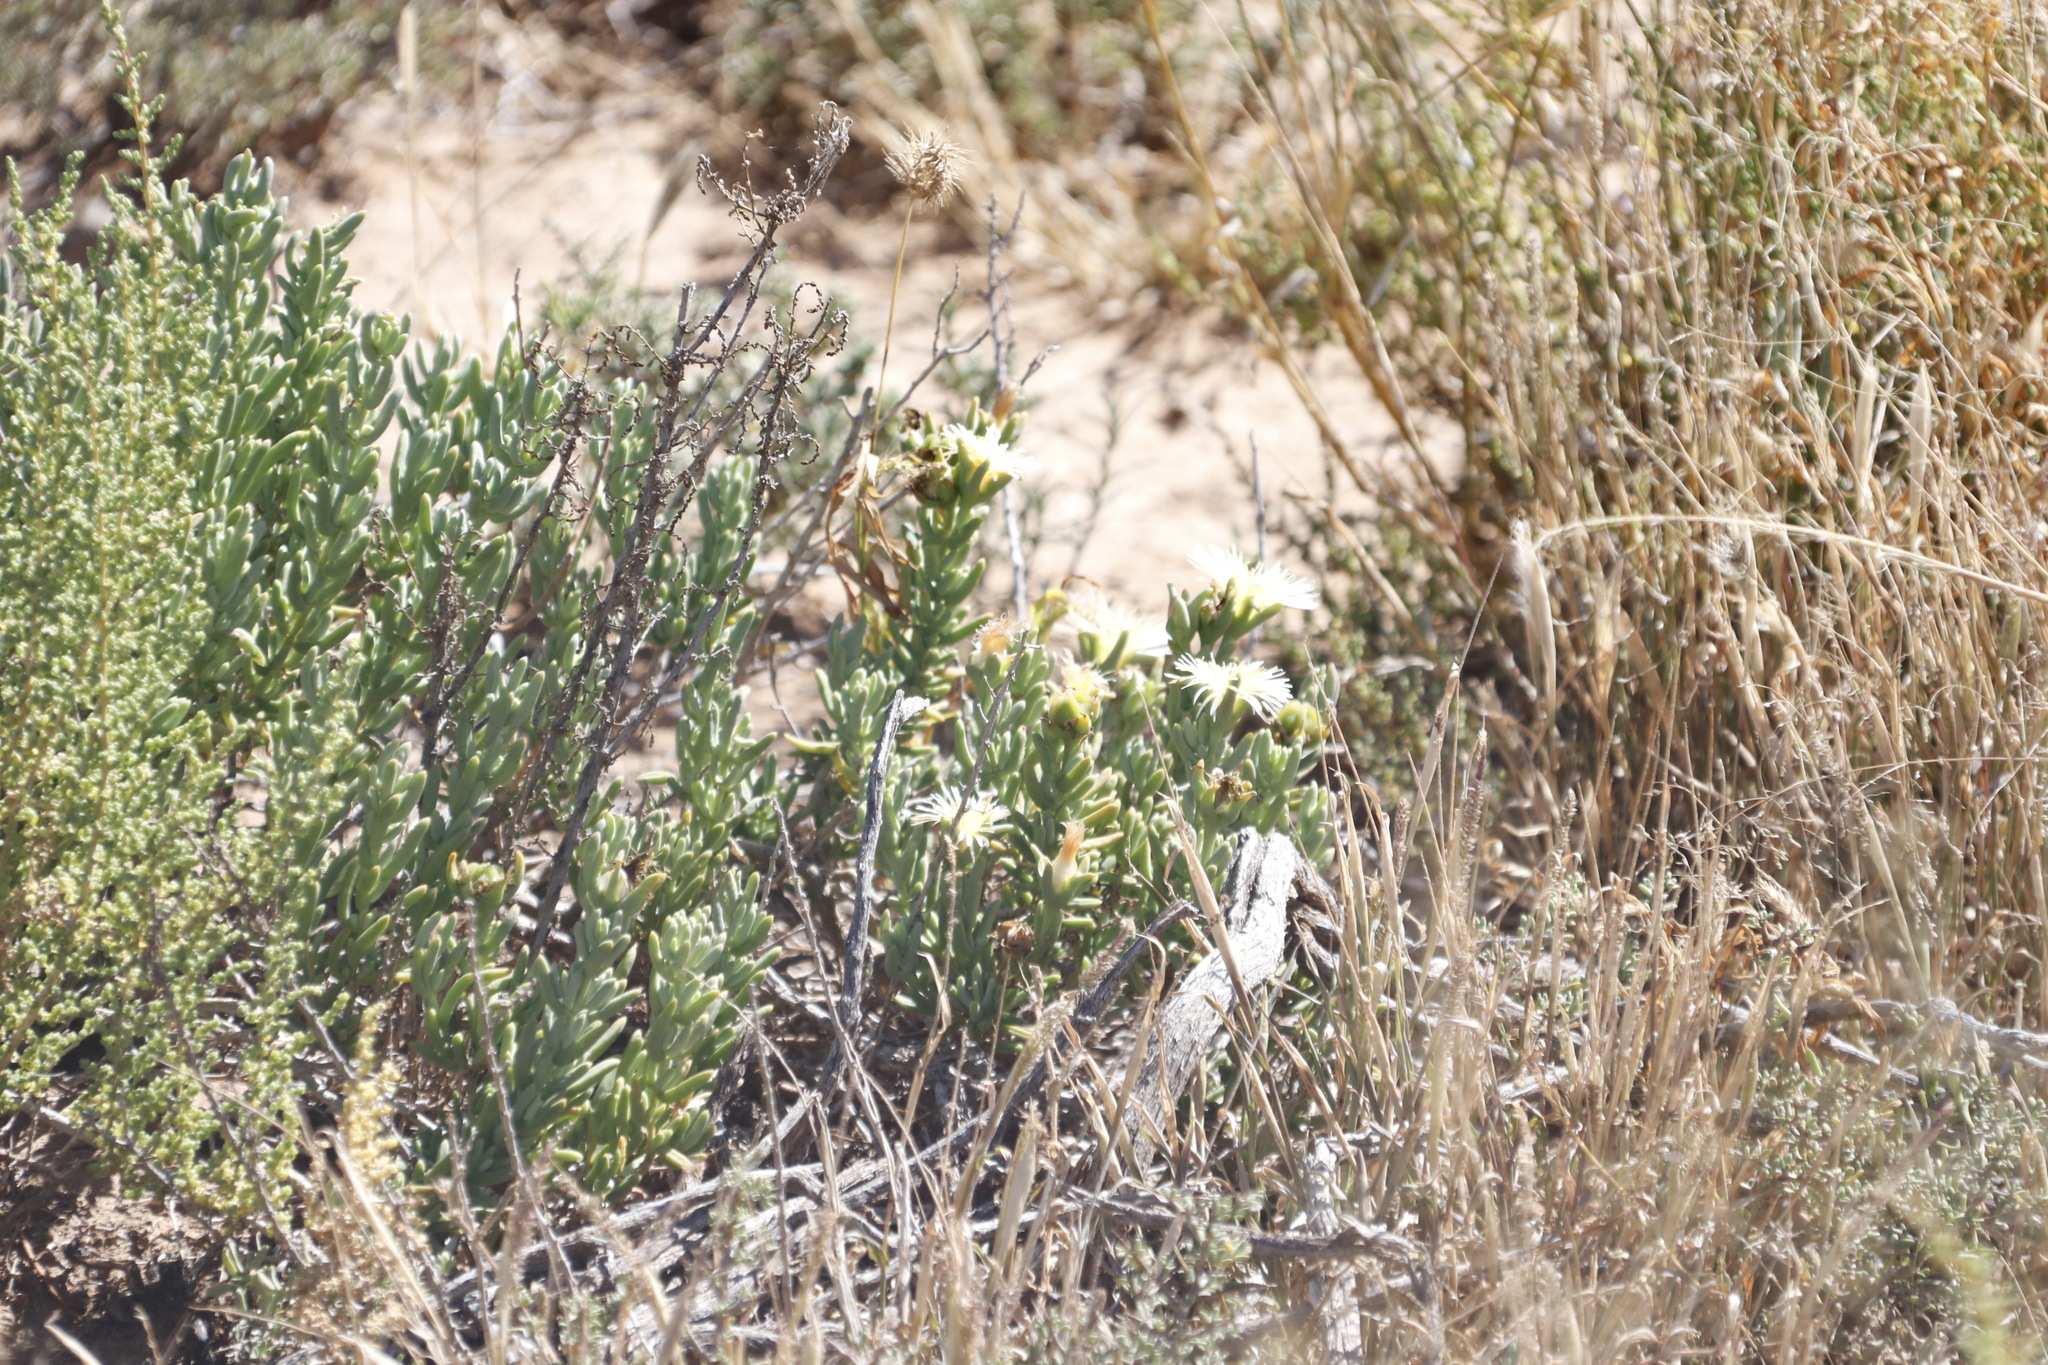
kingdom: Plantae
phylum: Tracheophyta
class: Magnoliopsida
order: Caryophyllales
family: Aizoaceae
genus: Mesembryanthemum
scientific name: Mesembryanthemum tetragonum
